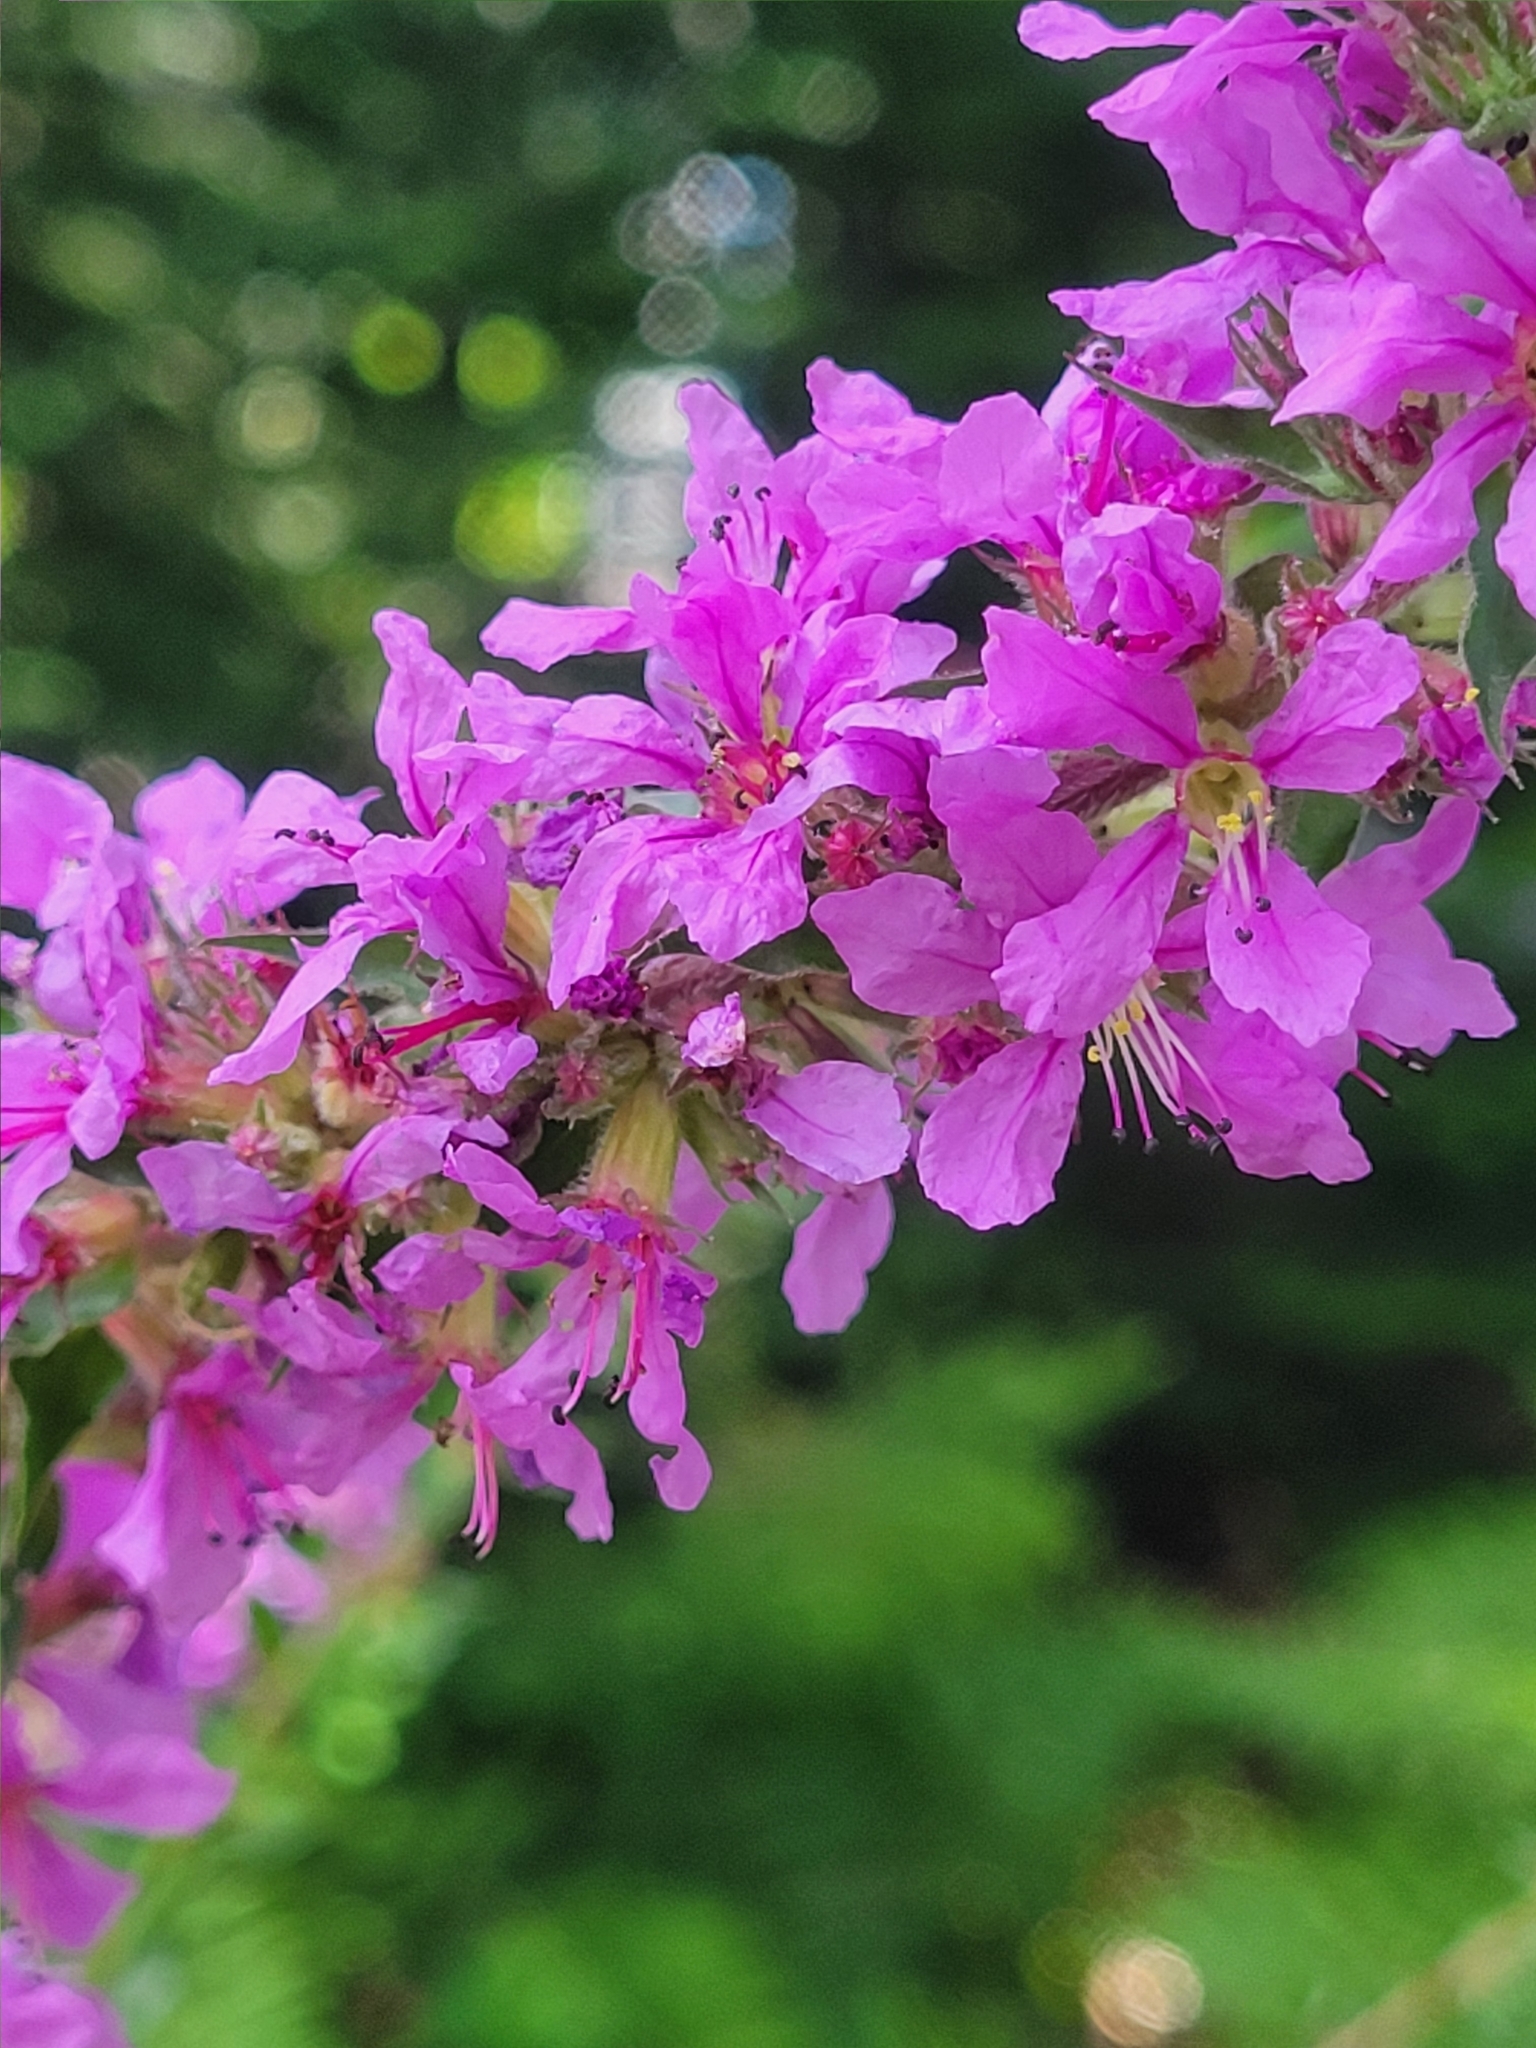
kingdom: Plantae
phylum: Tracheophyta
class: Magnoliopsida
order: Myrtales
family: Lythraceae
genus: Lythrum
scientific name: Lythrum salicaria
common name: Purple loosestrife
